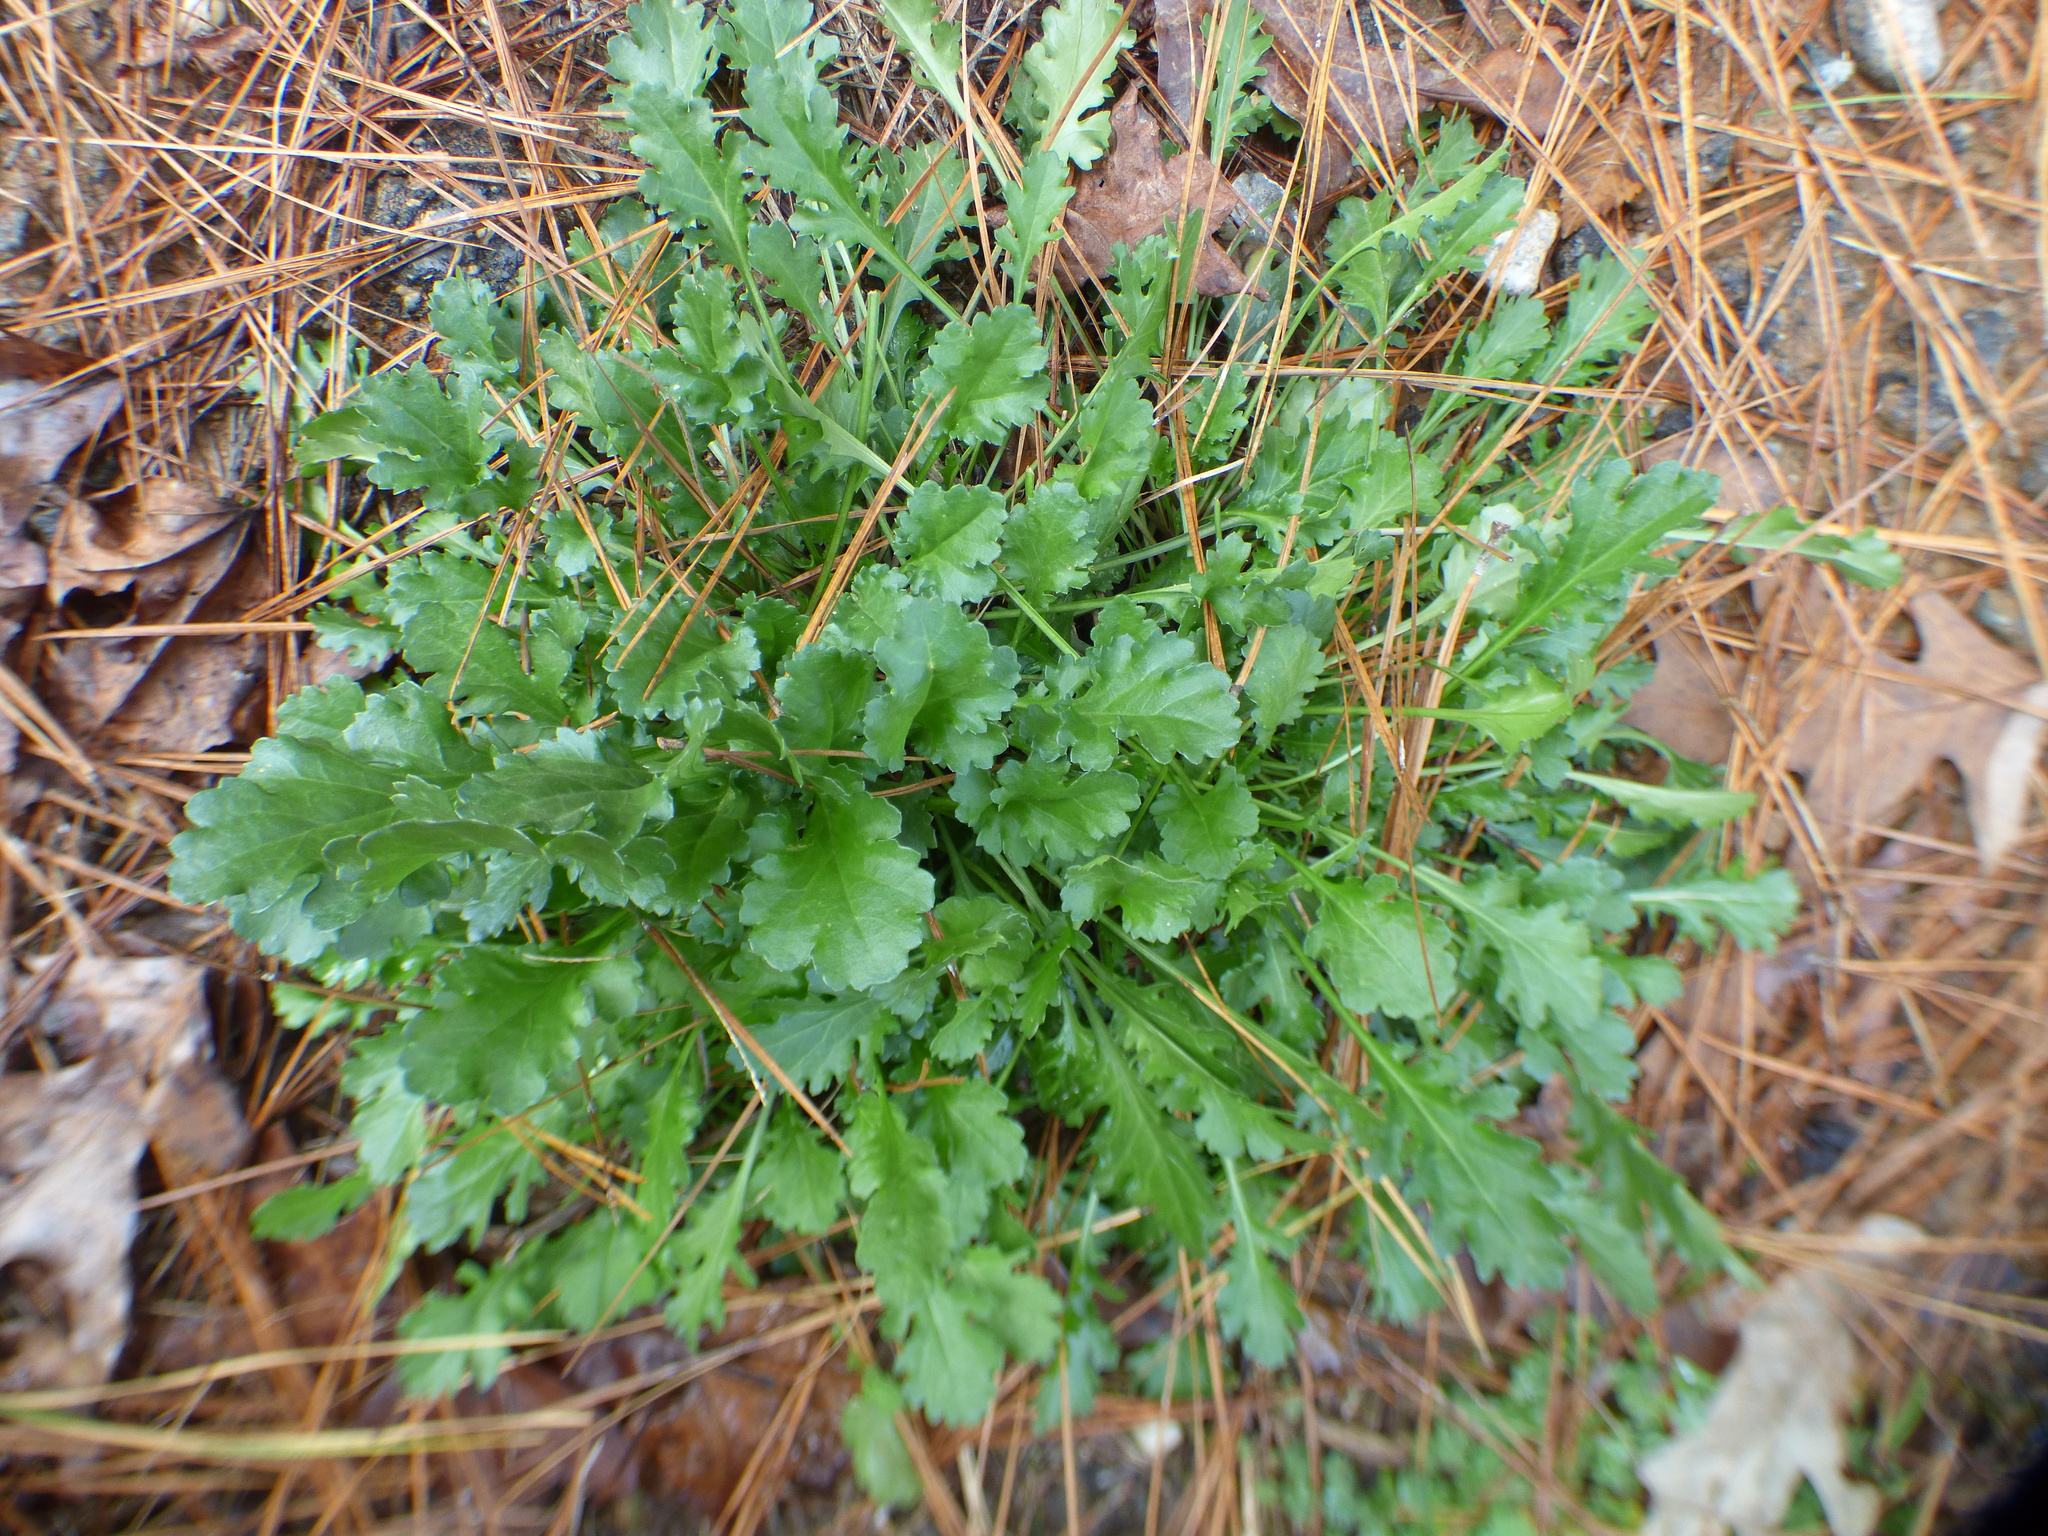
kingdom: Plantae
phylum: Tracheophyta
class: Magnoliopsida
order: Asterales
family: Asteraceae
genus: Leucanthemum
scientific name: Leucanthemum vulgare
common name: Oxeye daisy
